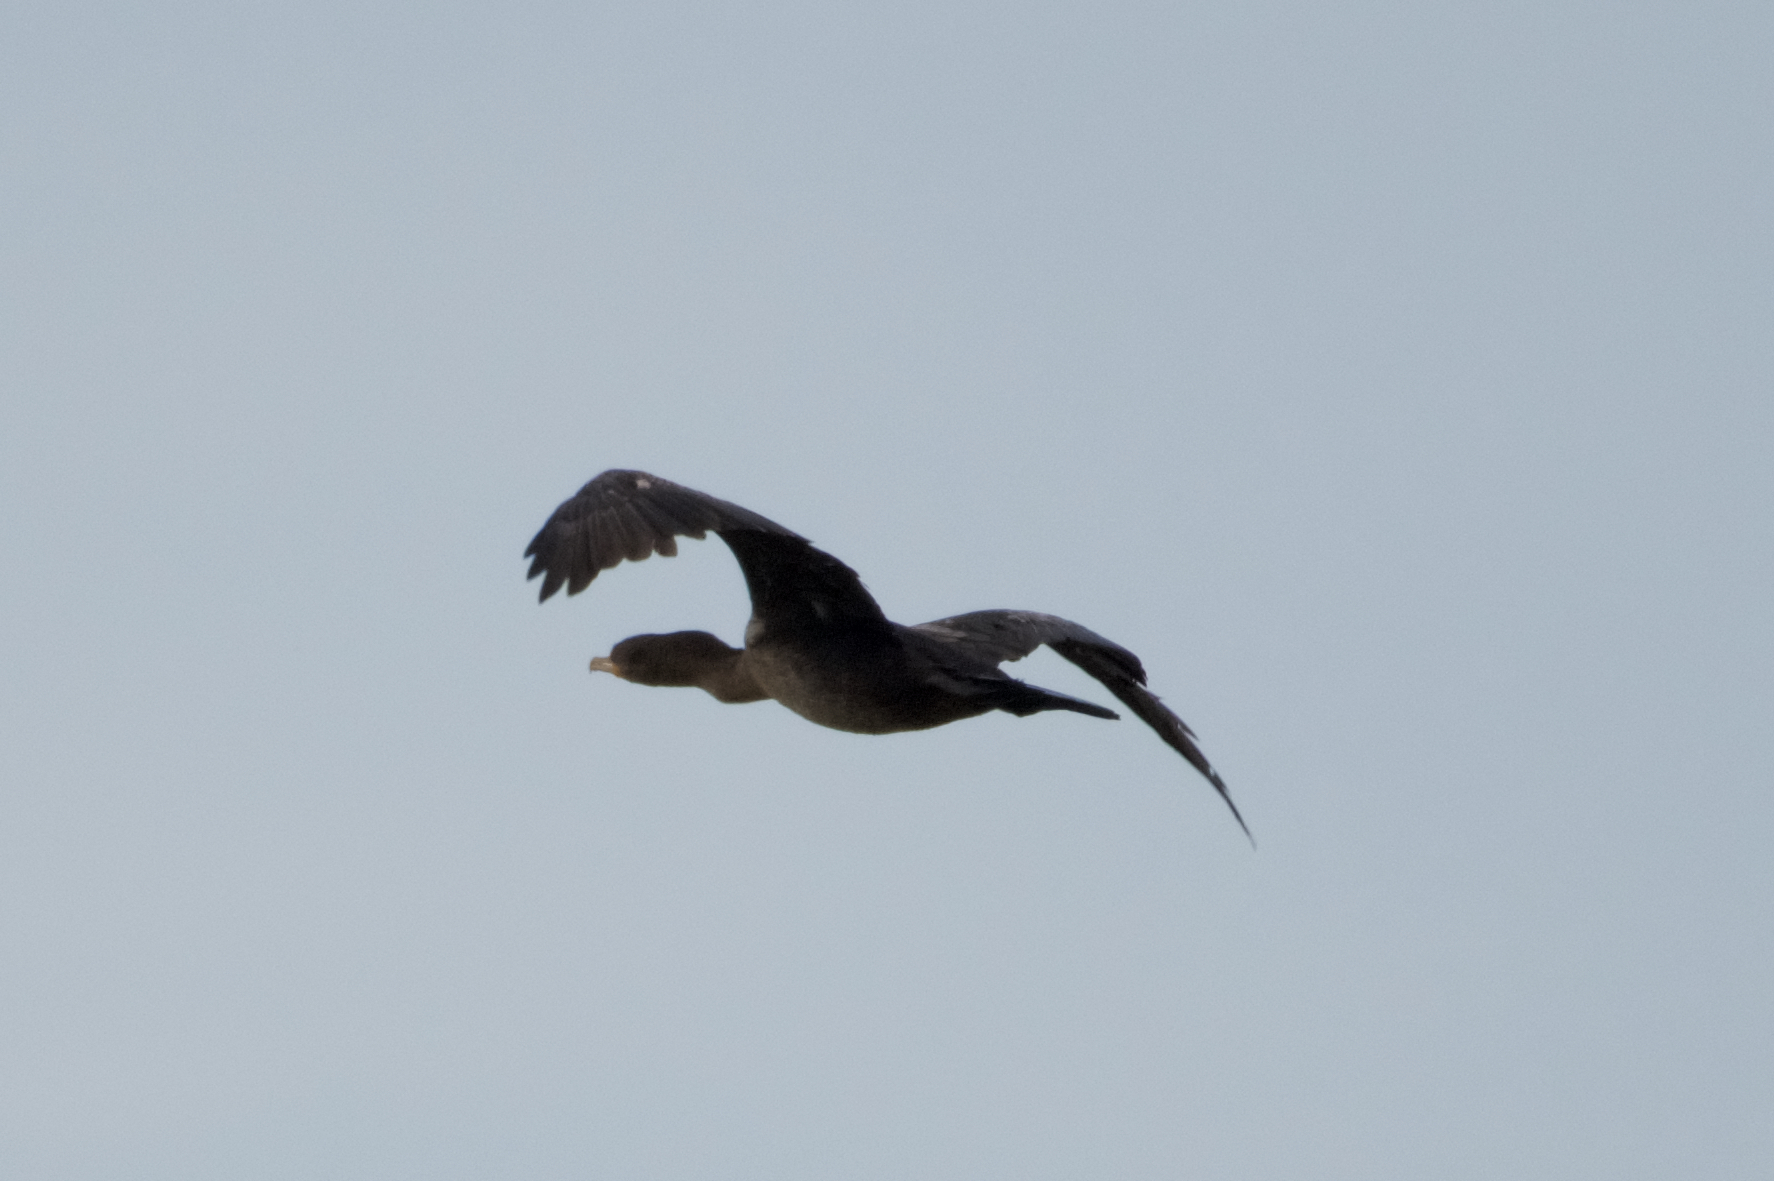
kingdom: Animalia
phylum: Chordata
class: Aves
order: Suliformes
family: Phalacrocoracidae
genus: Phalacrocorax
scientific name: Phalacrocorax auritus
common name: Double-crested cormorant
